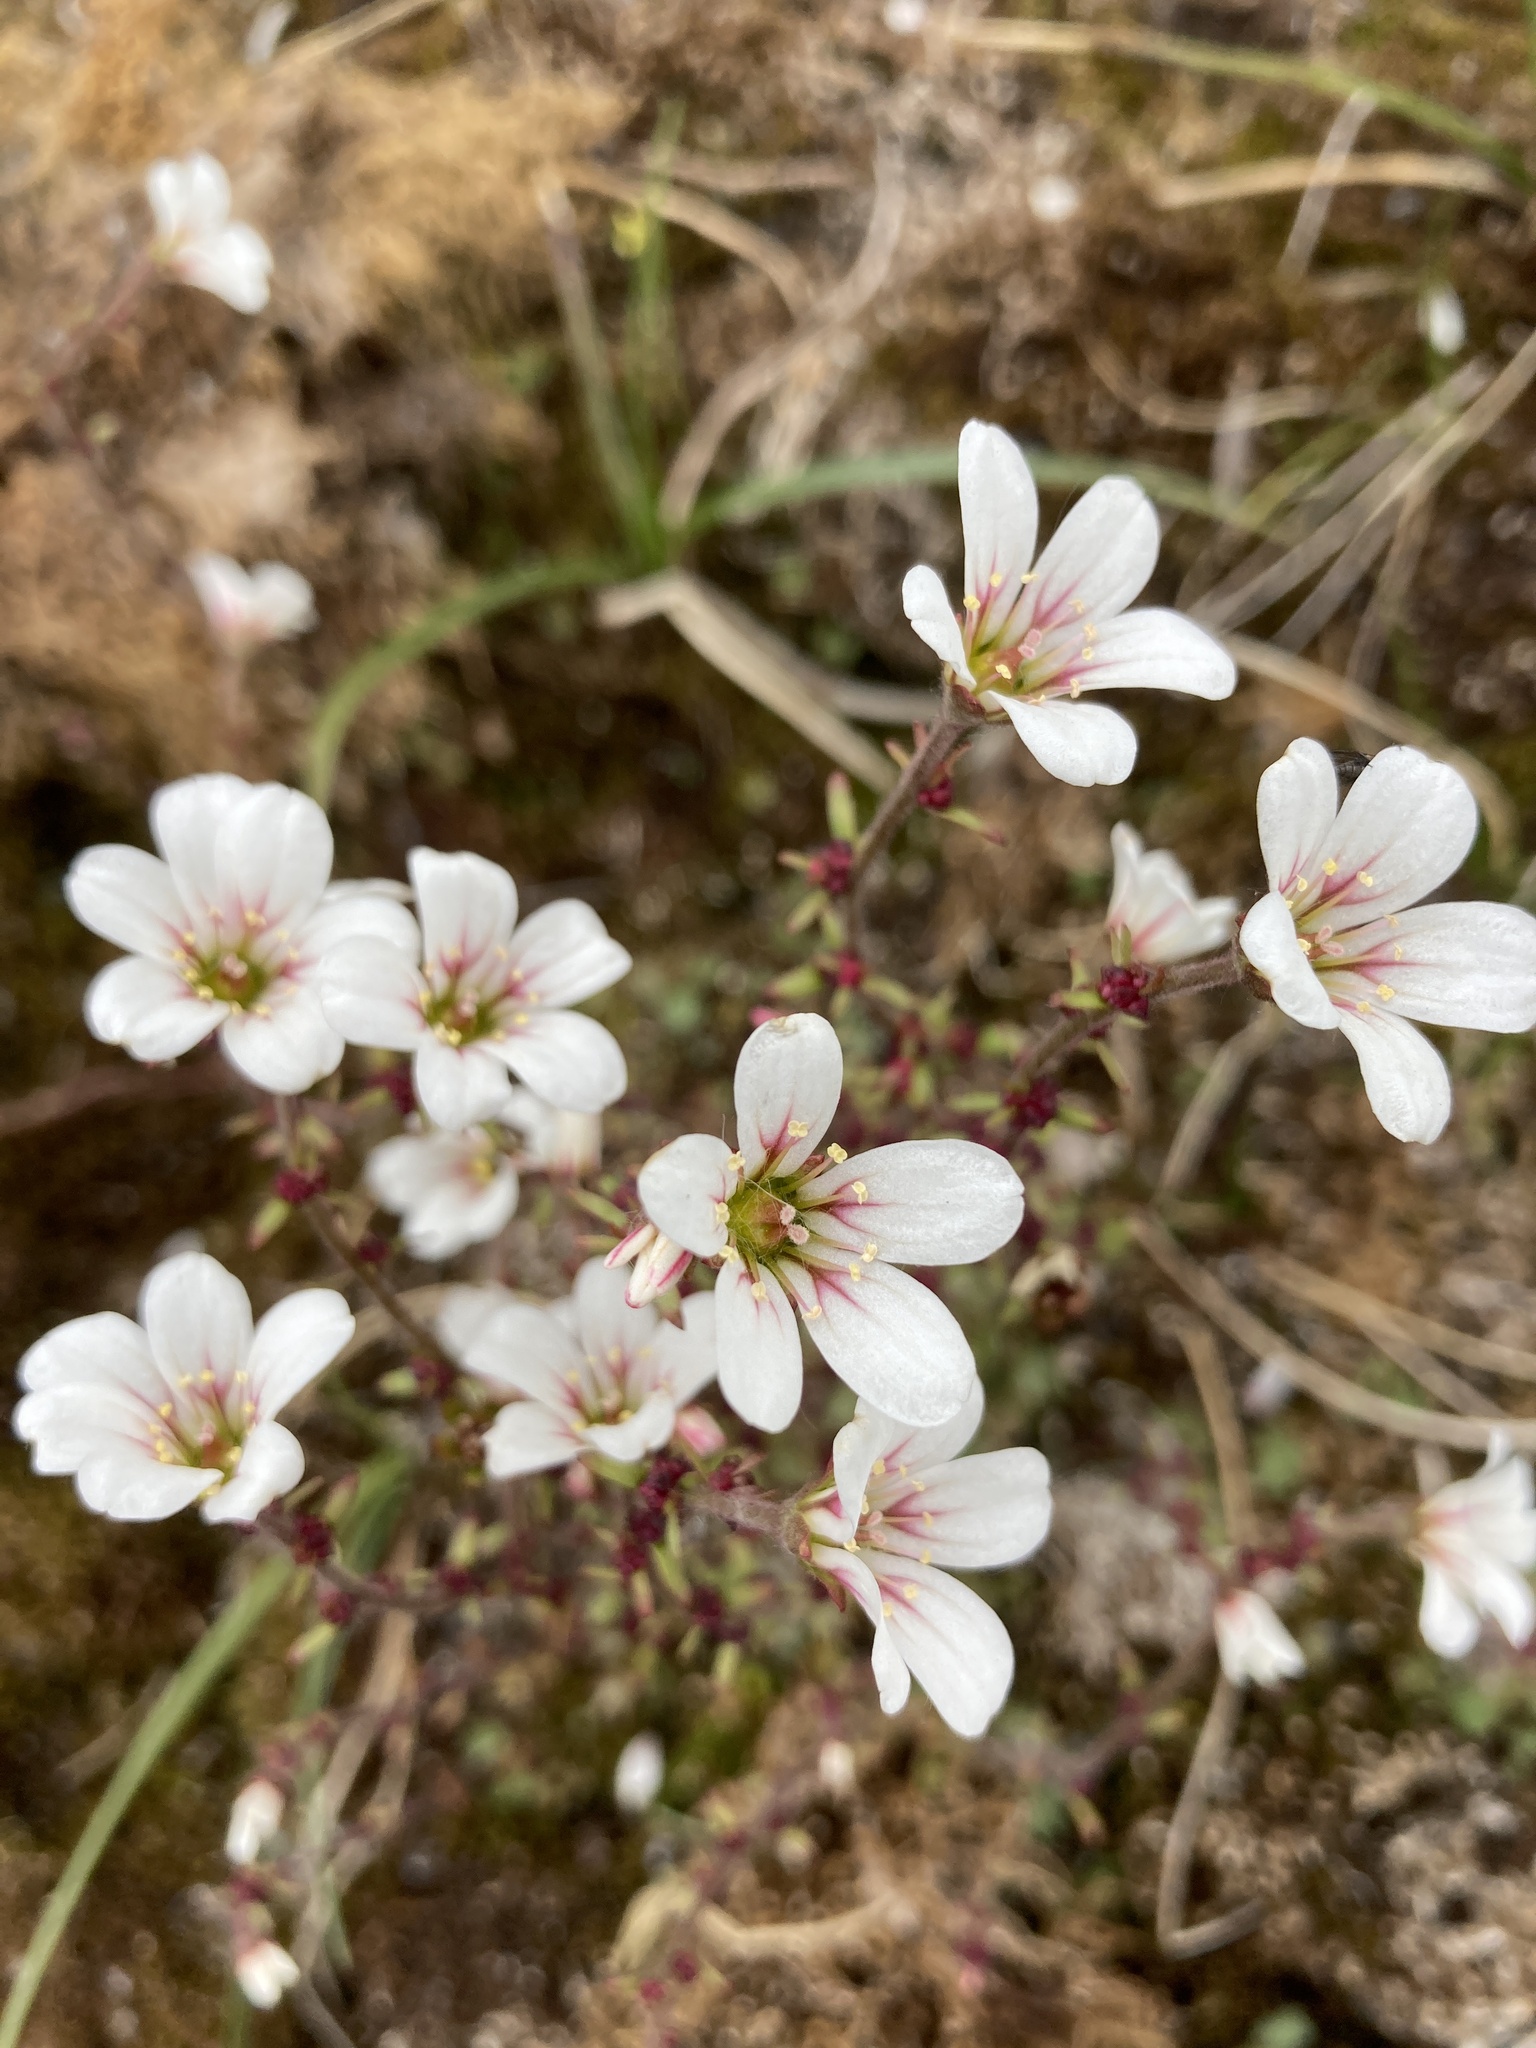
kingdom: Plantae
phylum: Tracheophyta
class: Magnoliopsida
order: Saxifragales
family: Saxifragaceae
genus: Saxifraga
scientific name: Saxifraga cernua
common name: Drooping saxifrage
